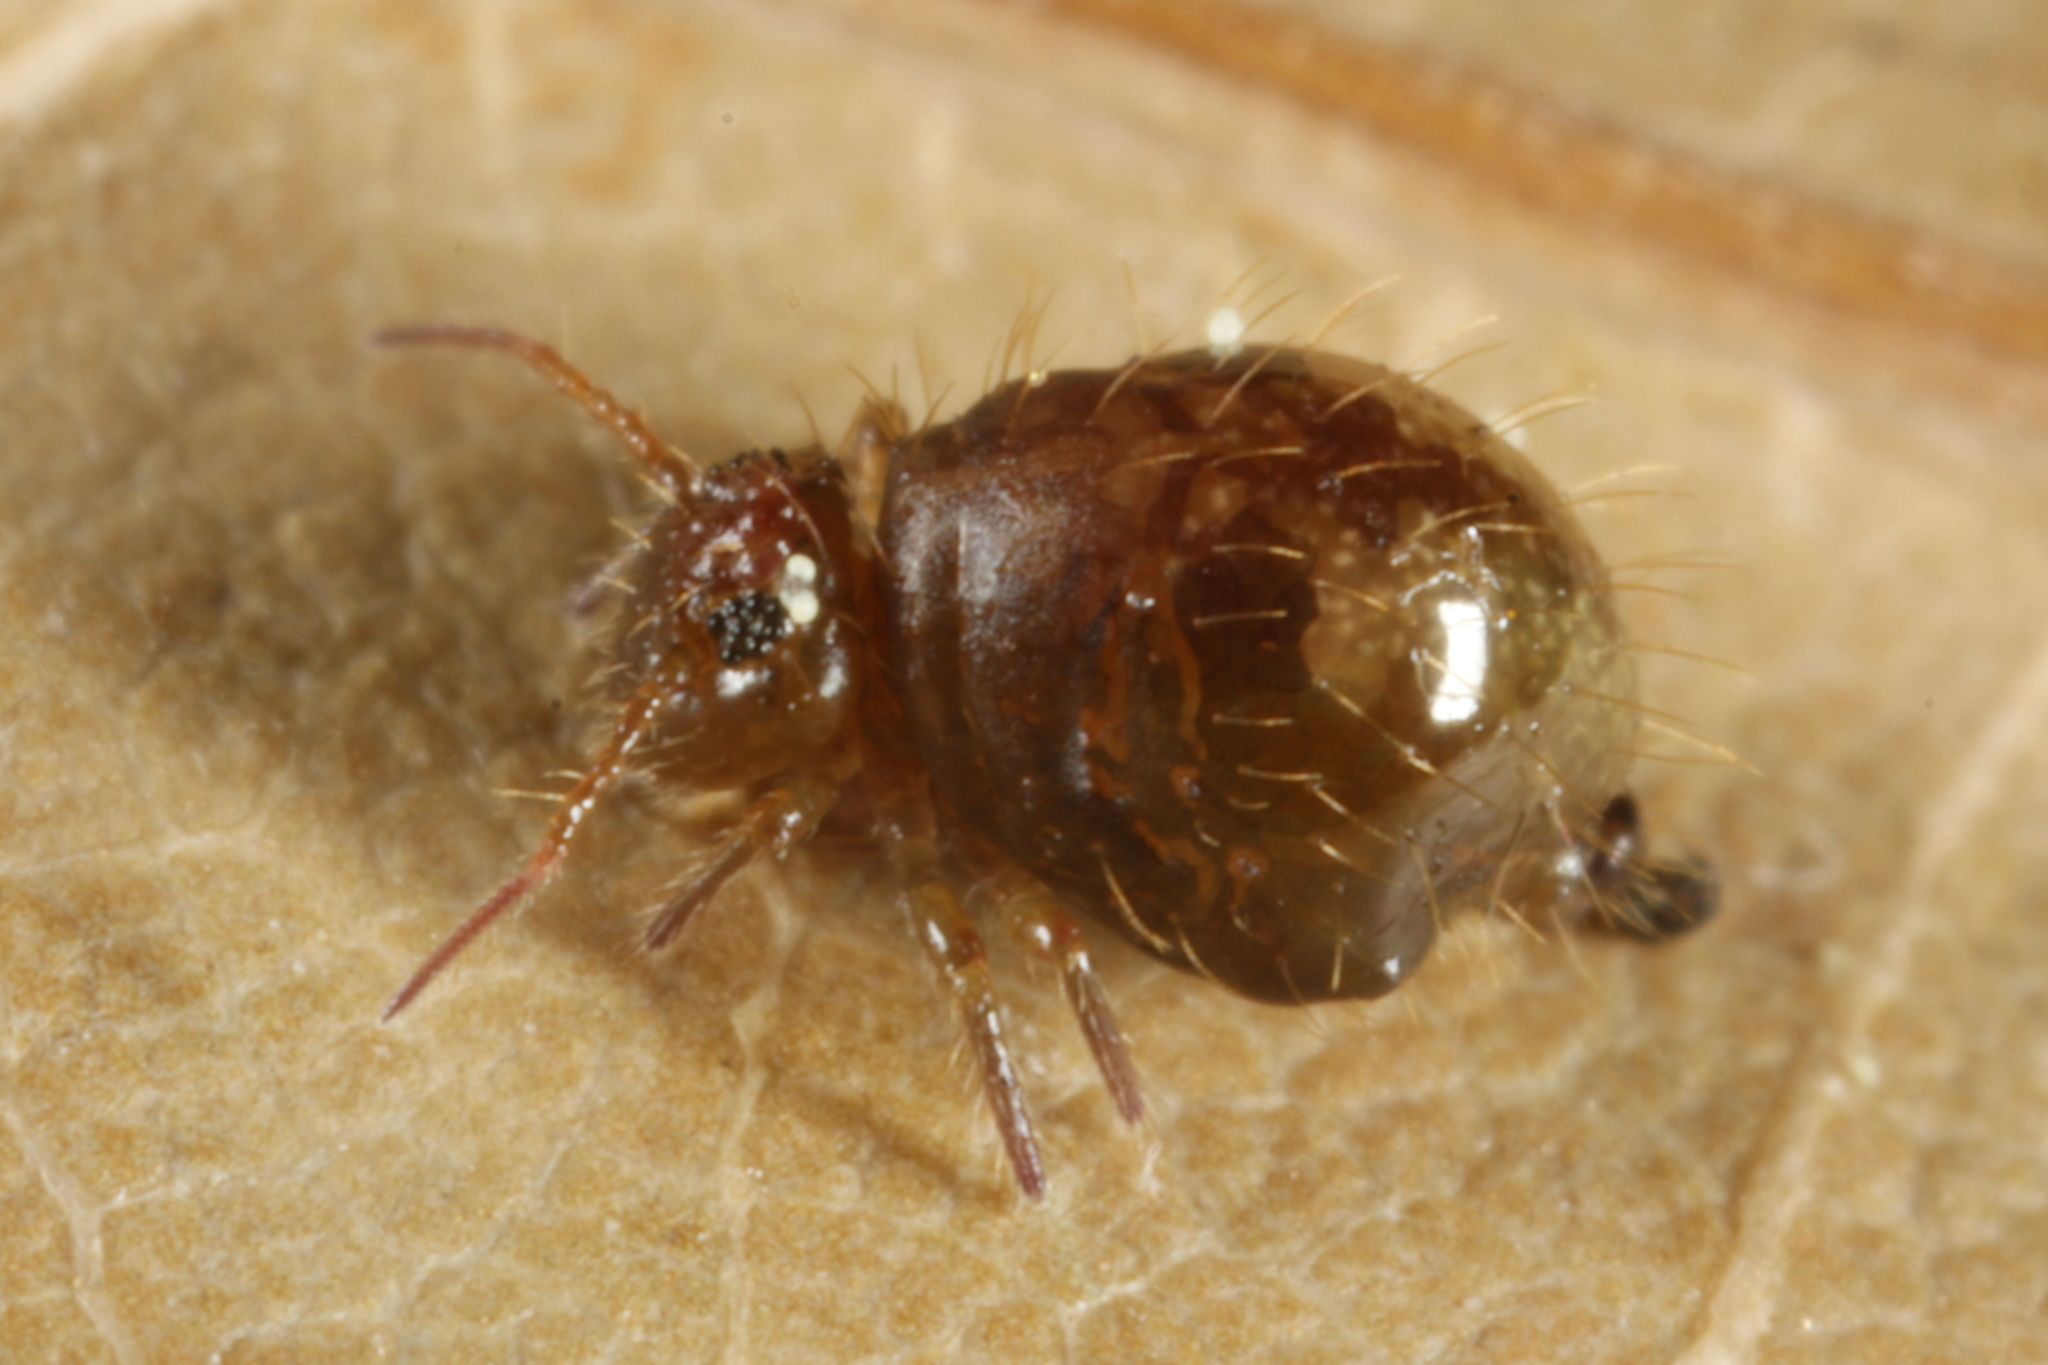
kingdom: Animalia
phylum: Arthropoda
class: Collembola
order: Symphypleona
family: Sminthuridae
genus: Allacma
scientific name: Allacma fusca
